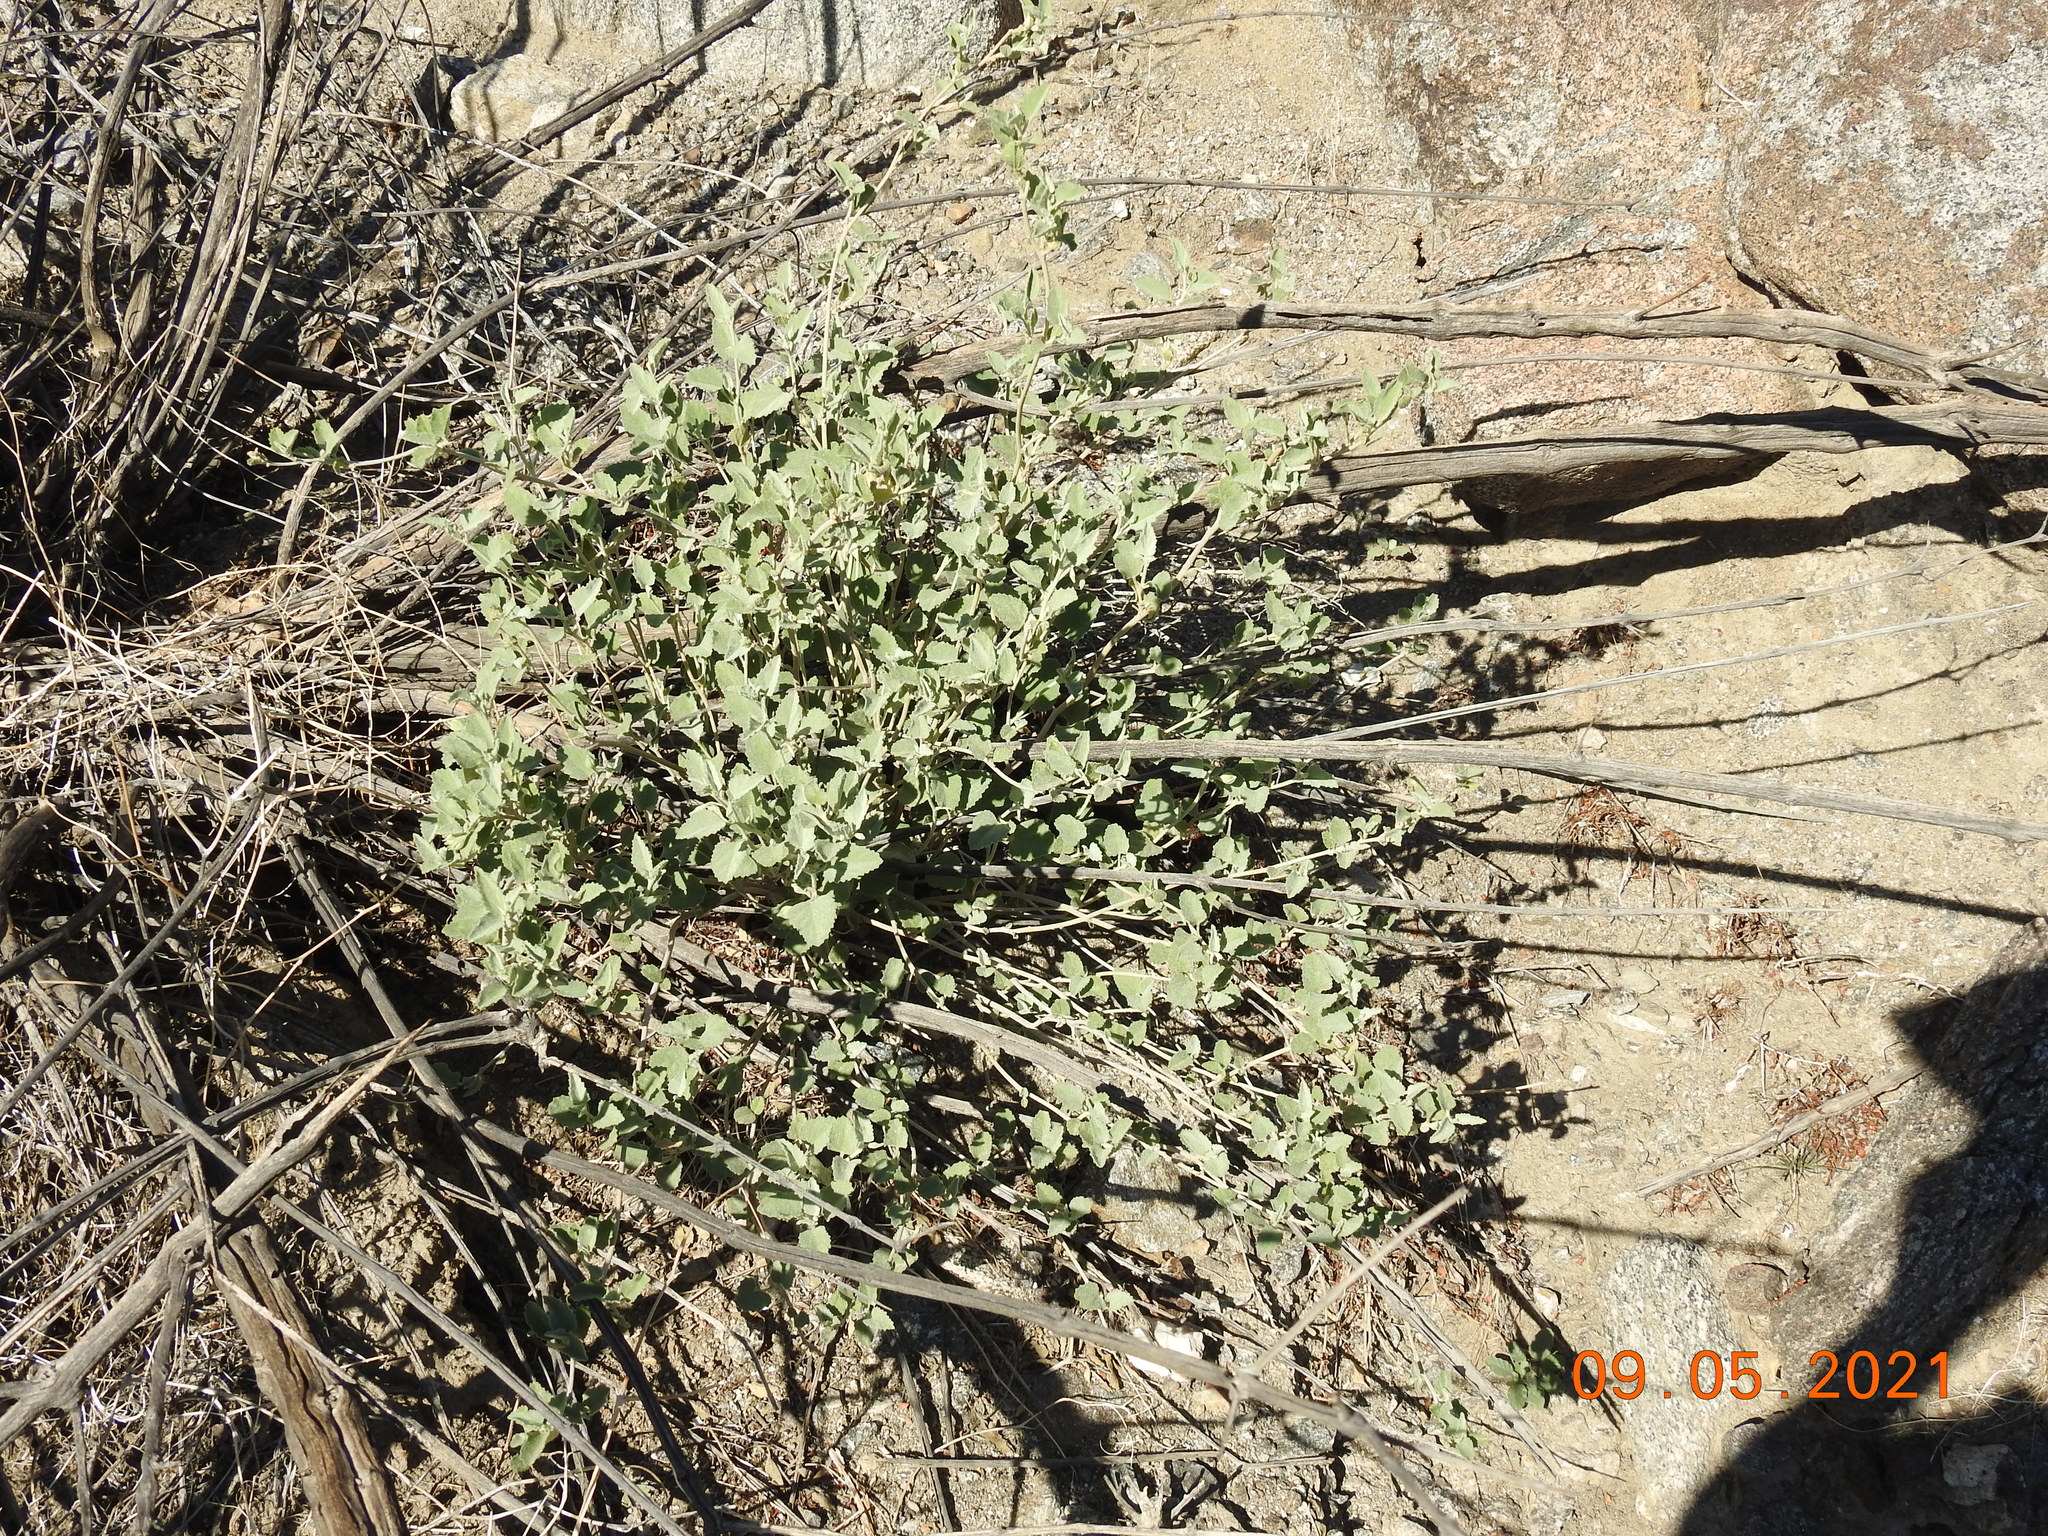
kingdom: Plantae
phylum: Tracheophyta
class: Magnoliopsida
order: Malvales
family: Malvaceae
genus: Hibiscus
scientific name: Hibiscus denudatus
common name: Paleface
